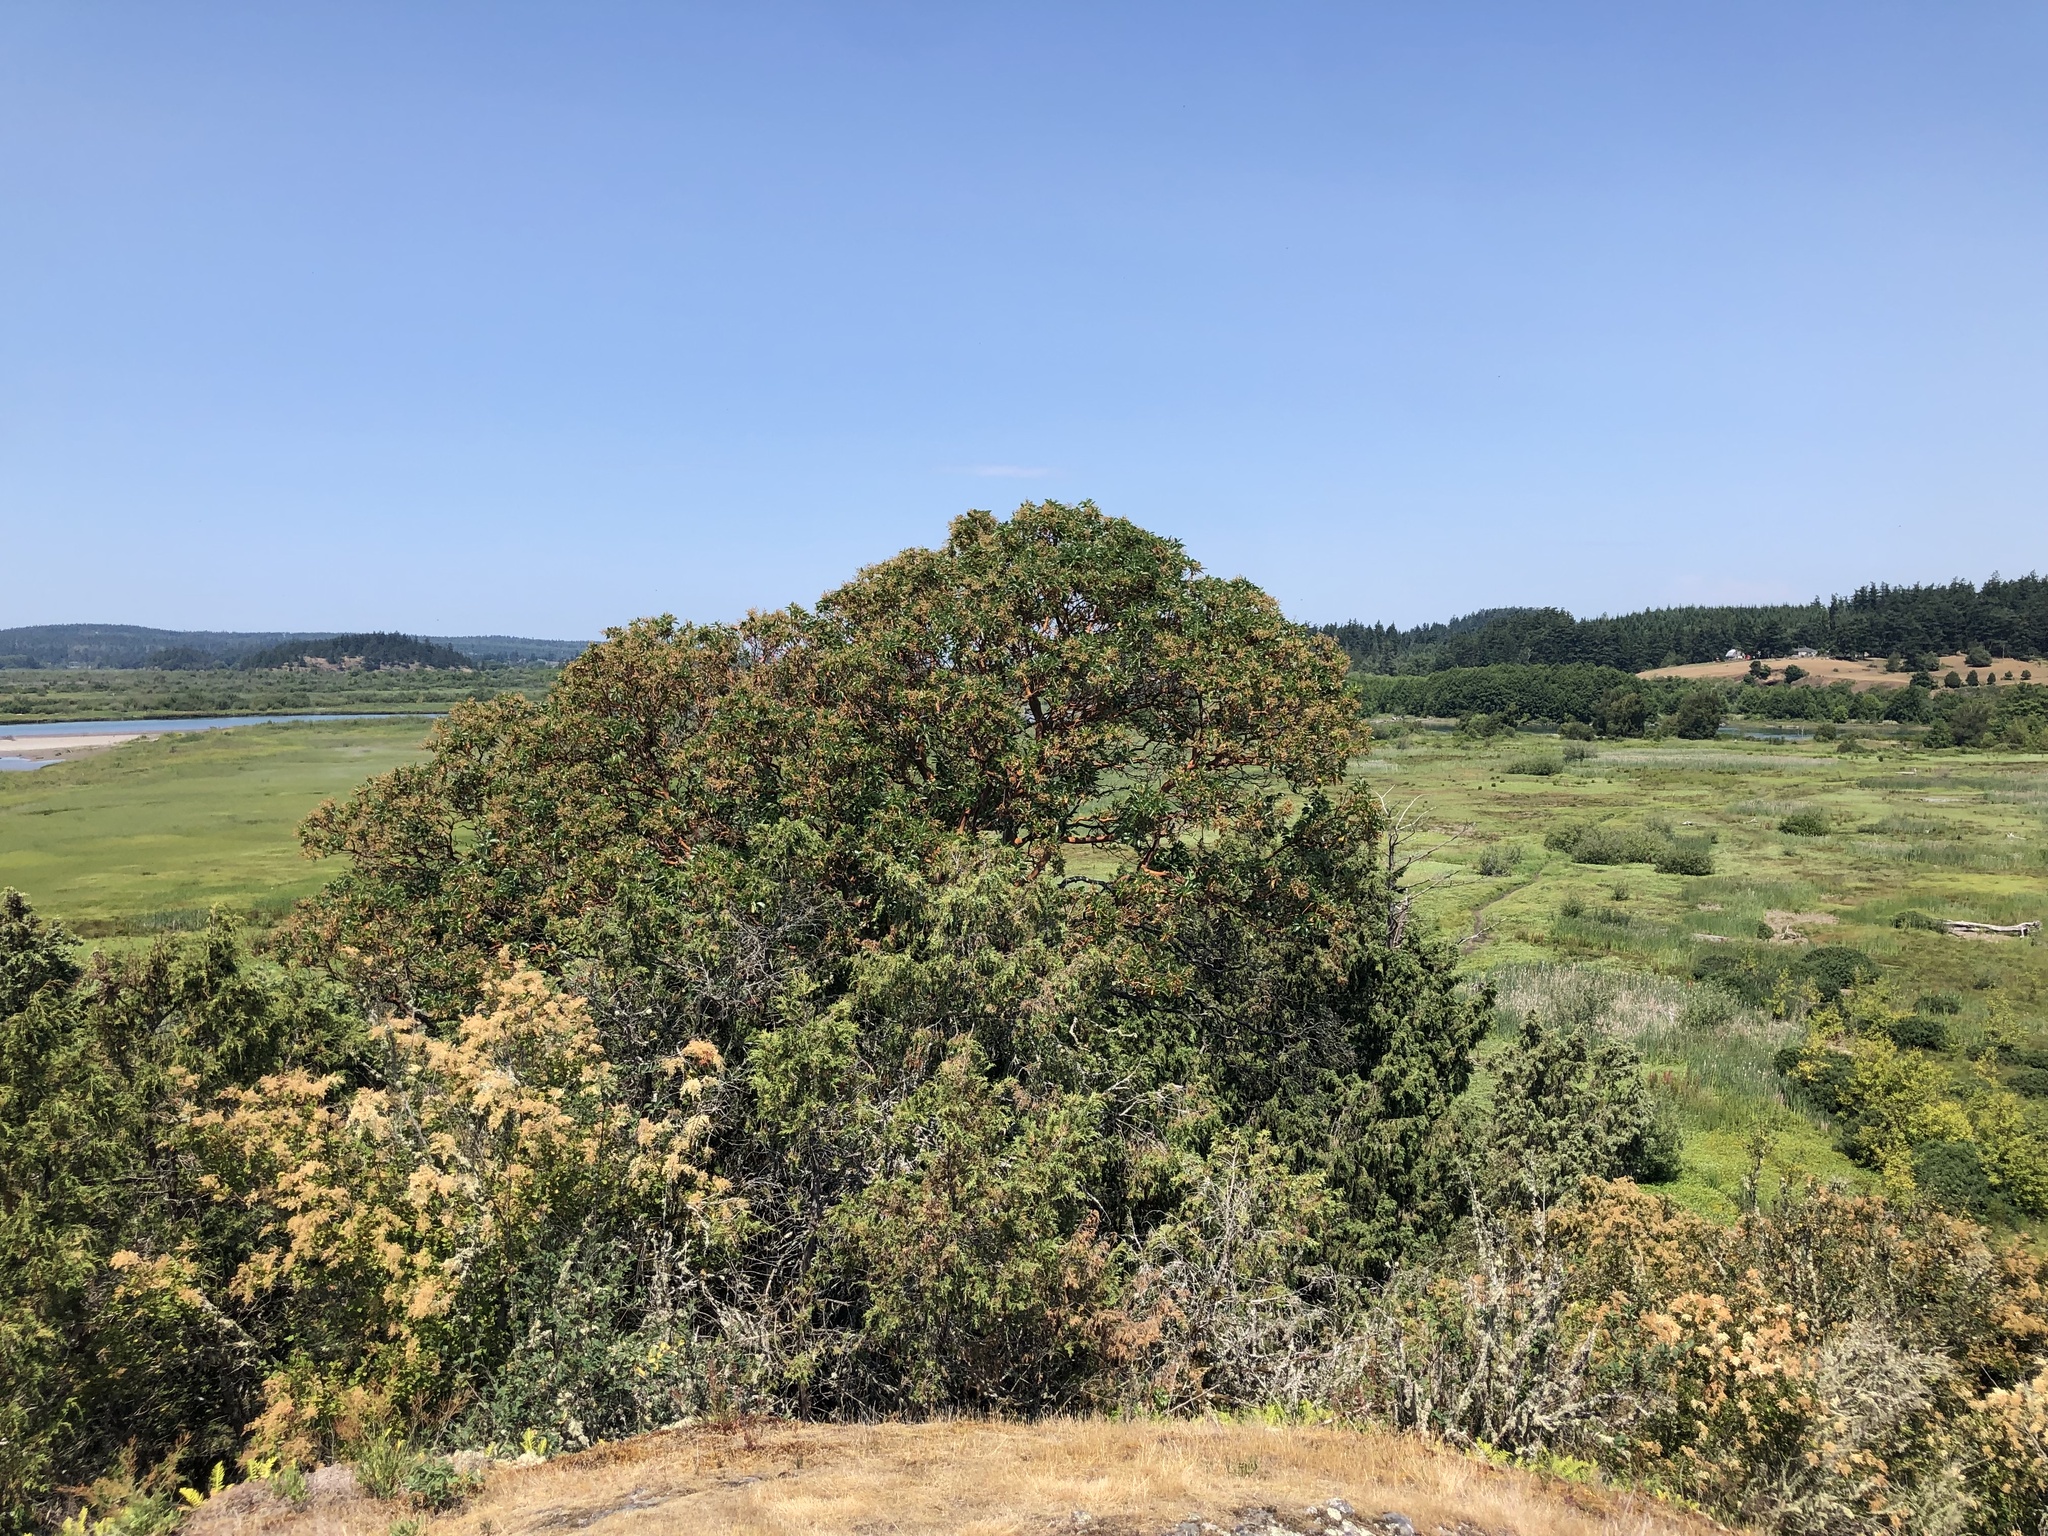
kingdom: Plantae
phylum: Tracheophyta
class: Magnoliopsida
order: Ericales
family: Ericaceae
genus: Arbutus
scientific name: Arbutus menziesii
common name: Pacific madrone
